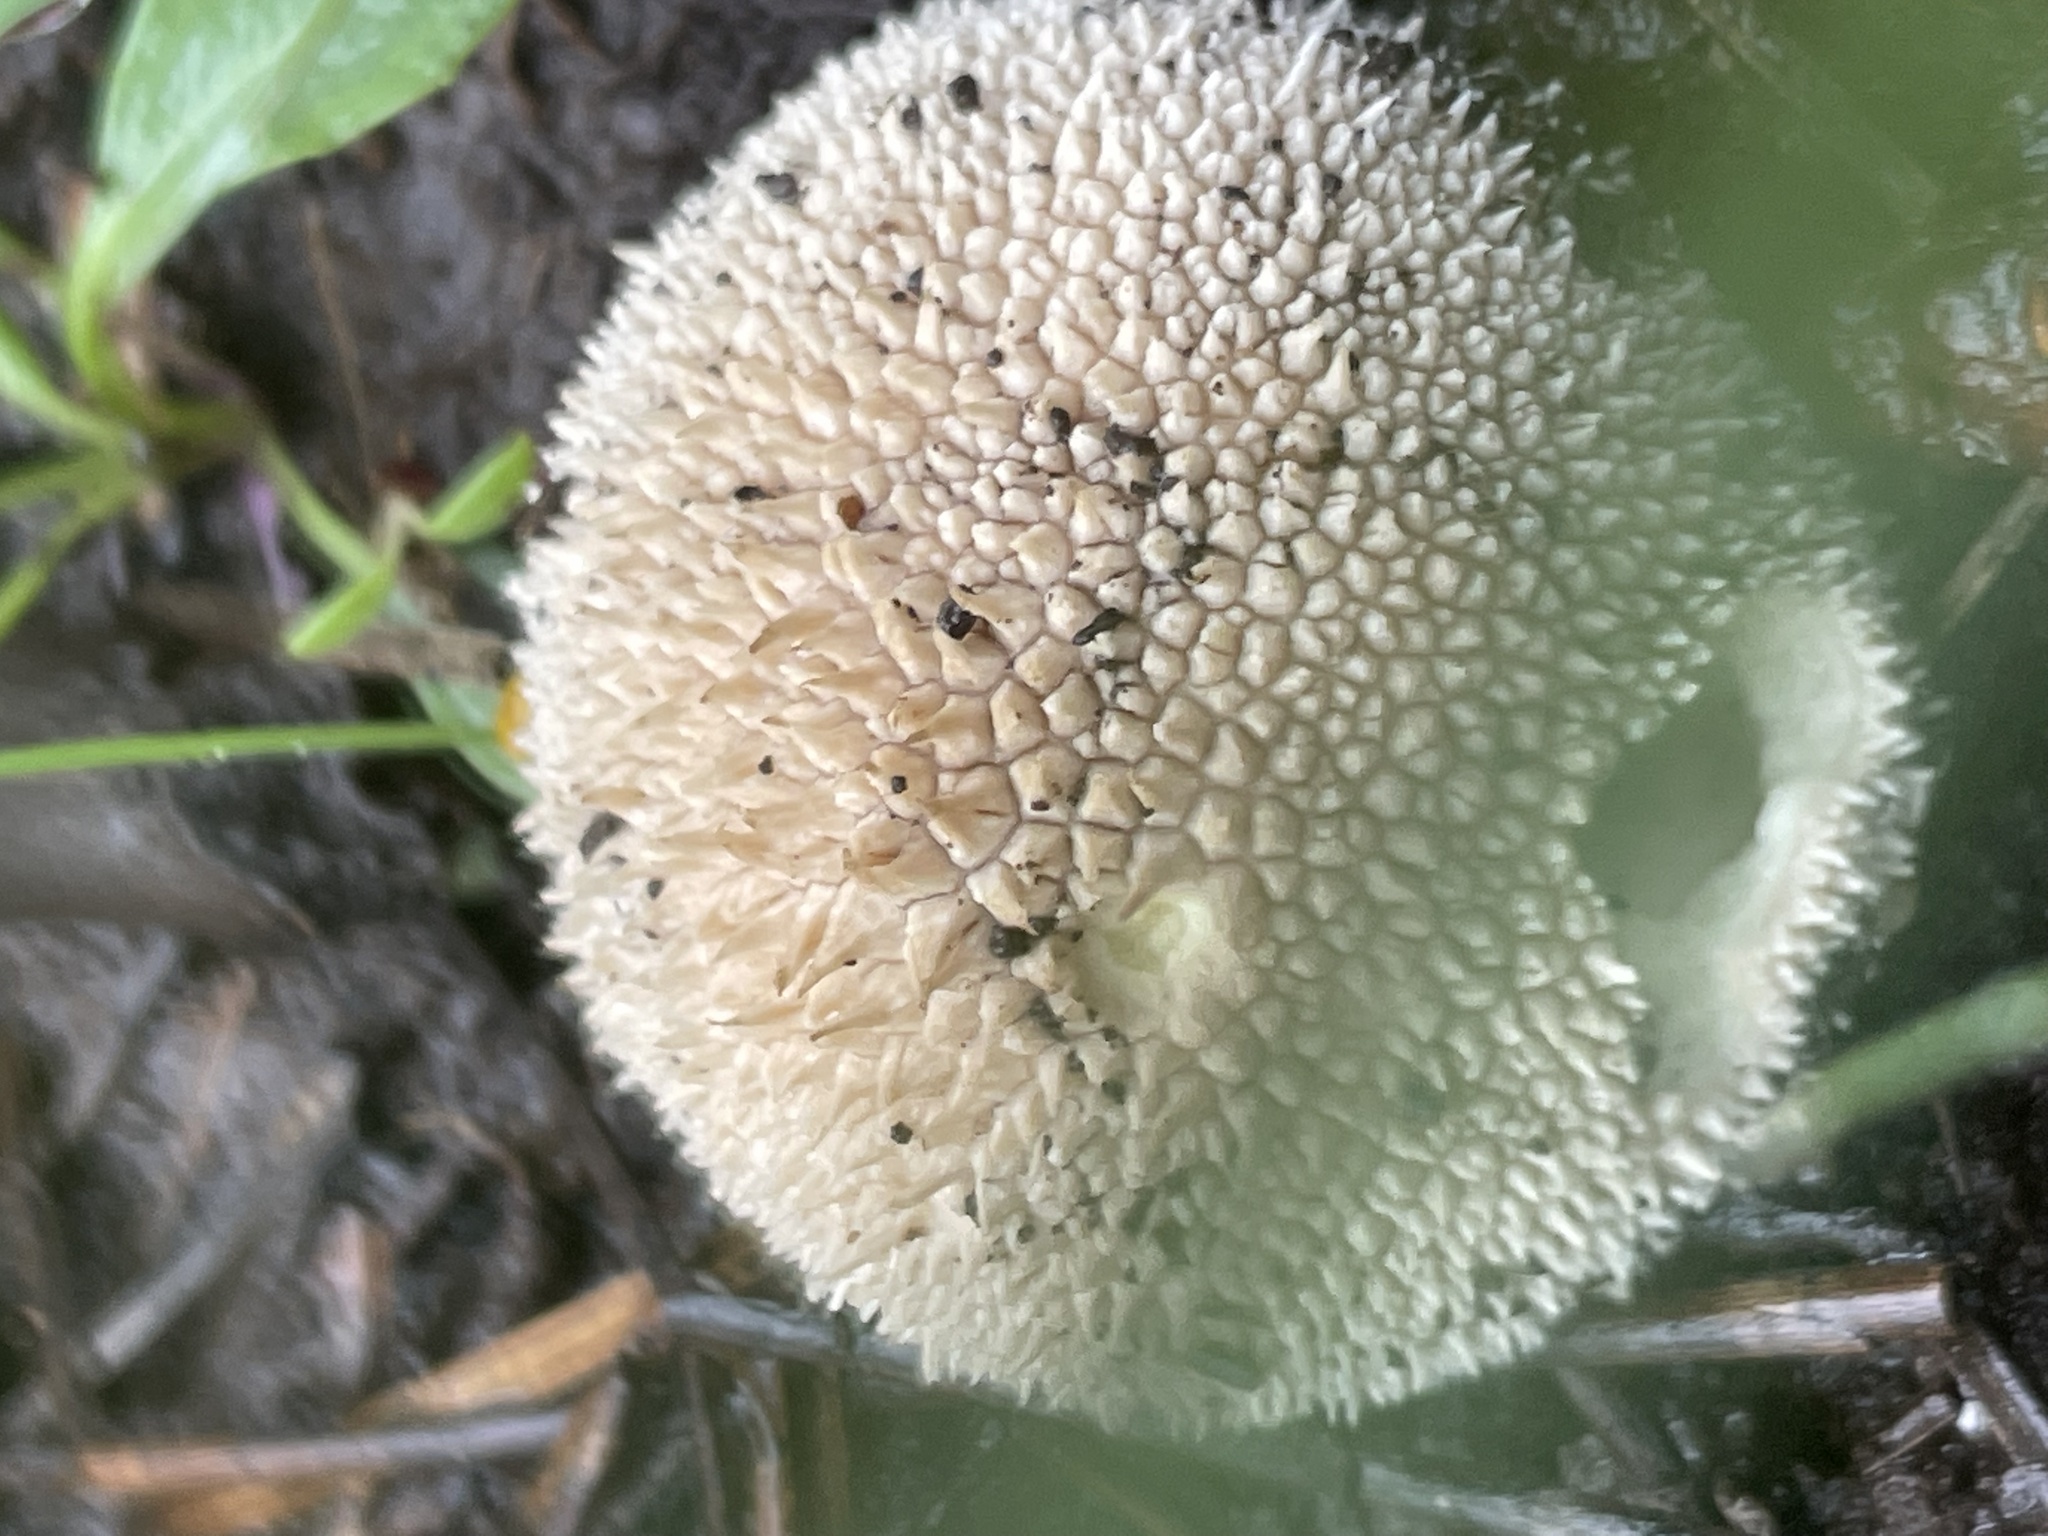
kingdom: Fungi
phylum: Basidiomycota
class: Agaricomycetes
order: Agaricales
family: Agaricaceae
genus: Lycoperdon
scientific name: Lycoperdon marginatum
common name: Peeling puffball
